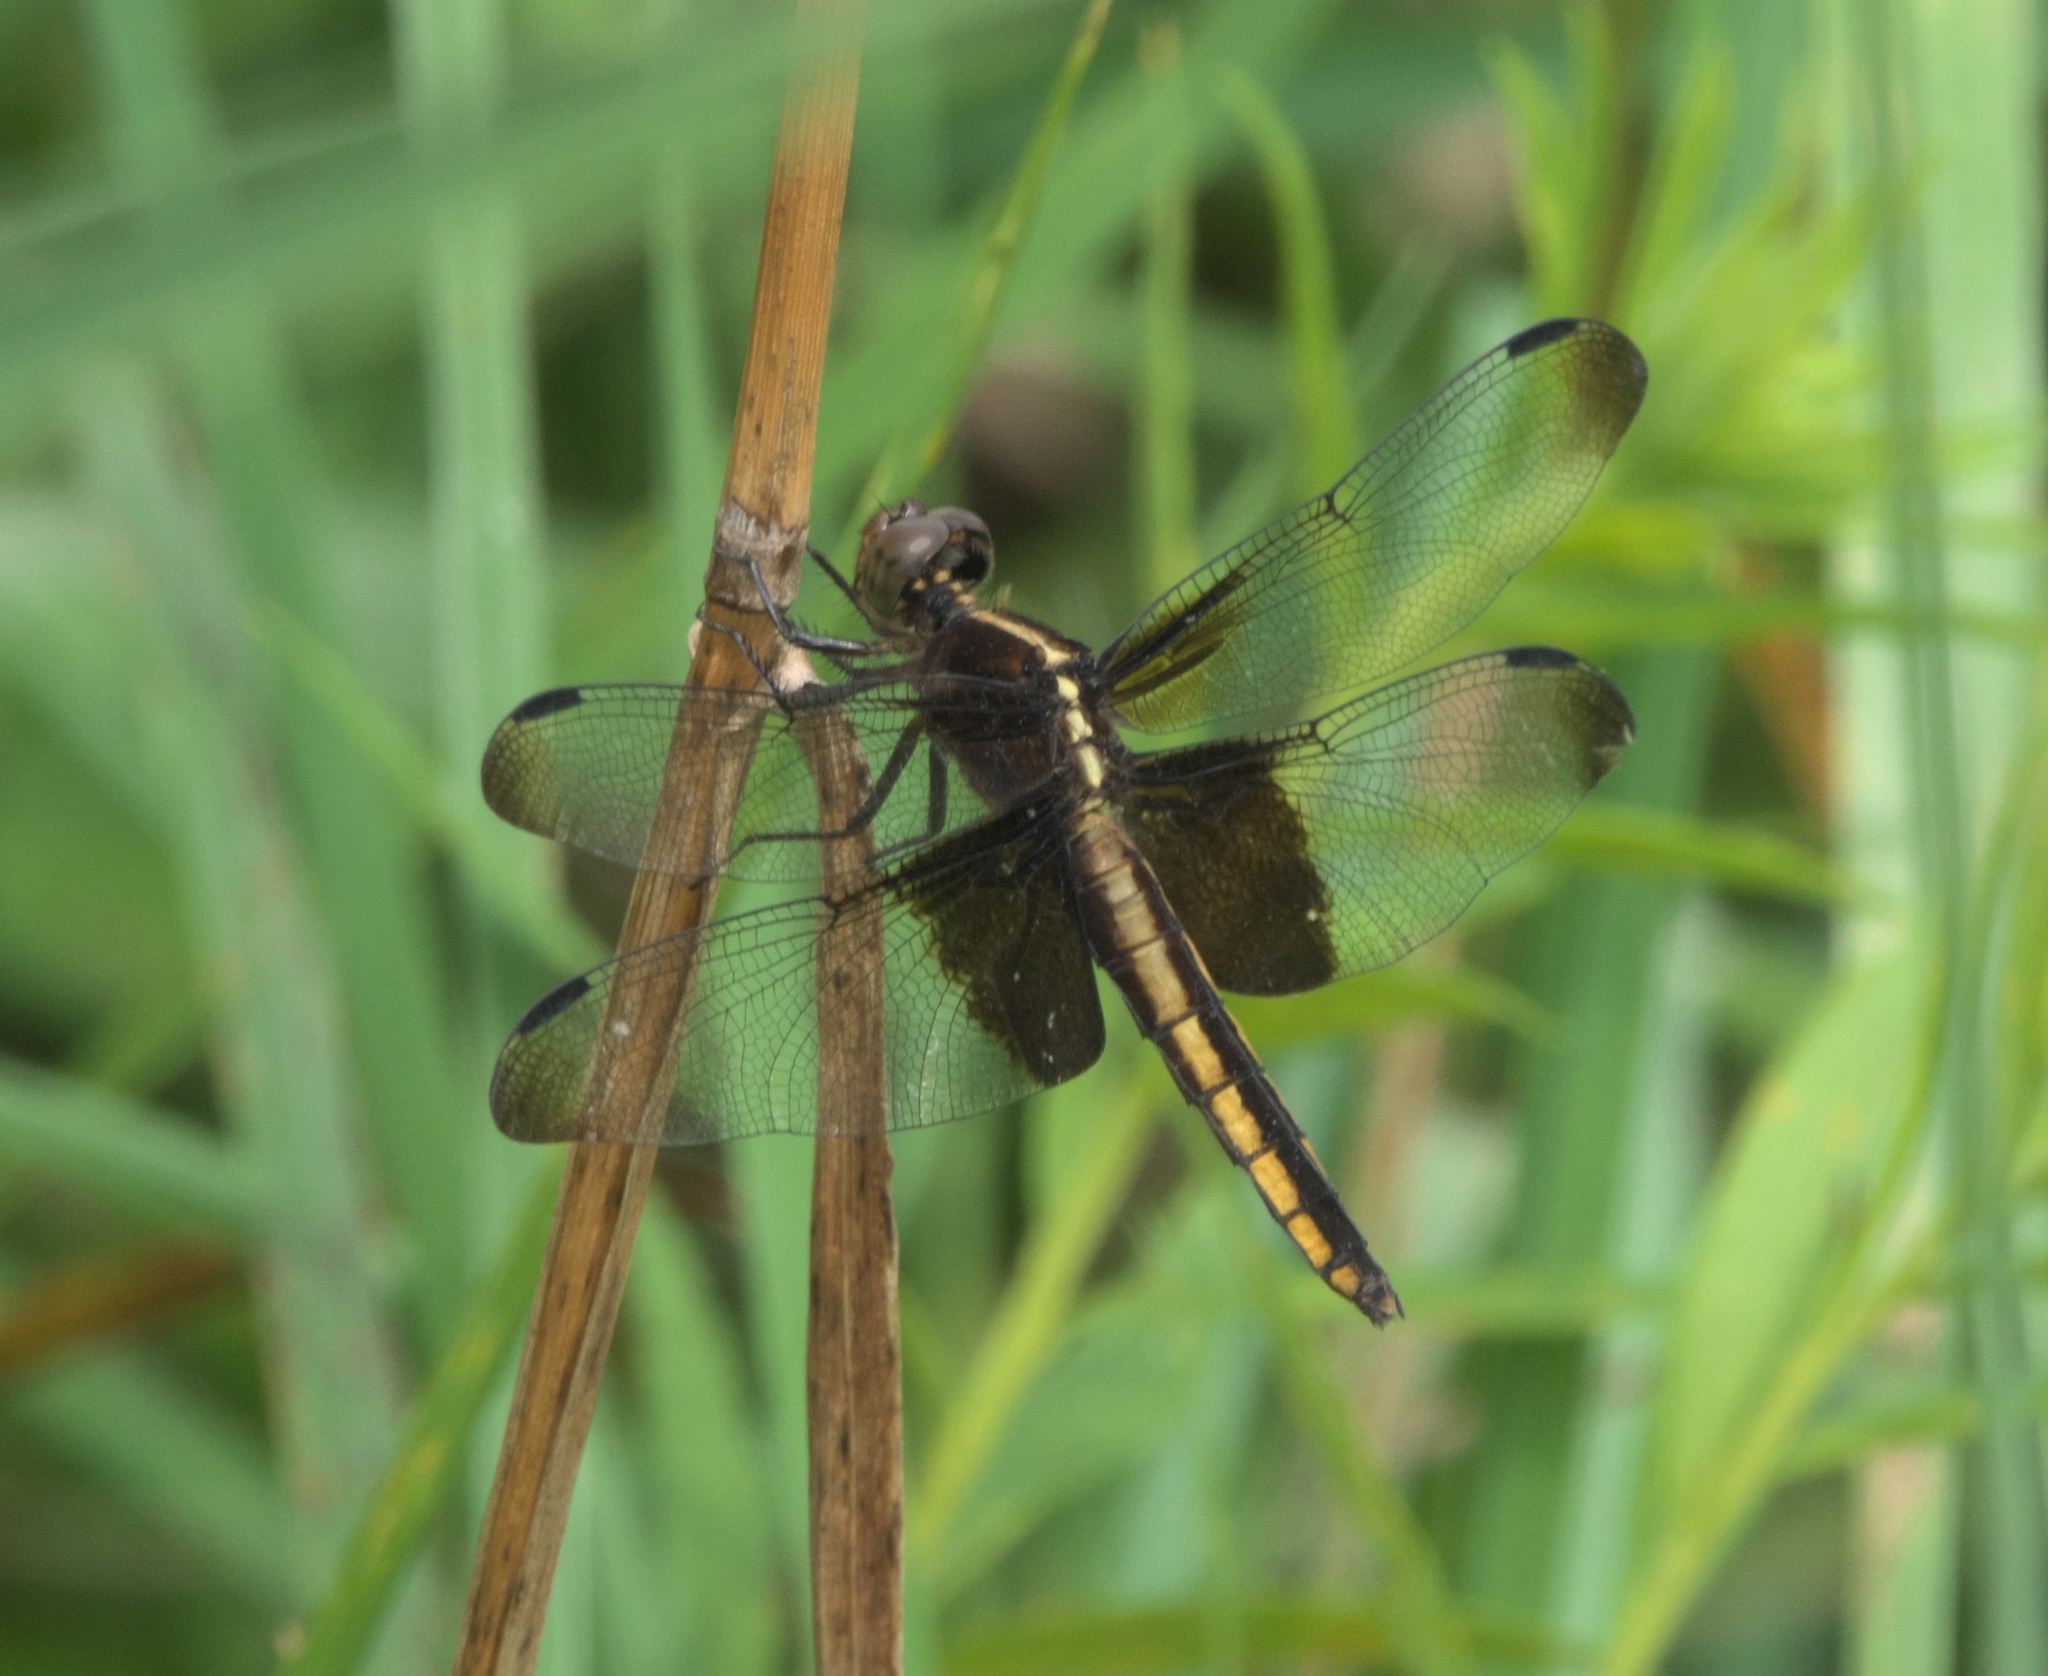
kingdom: Animalia
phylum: Arthropoda
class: Insecta
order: Odonata
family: Libellulidae
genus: Libellula
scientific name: Libellula luctuosa
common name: Widow skimmer
